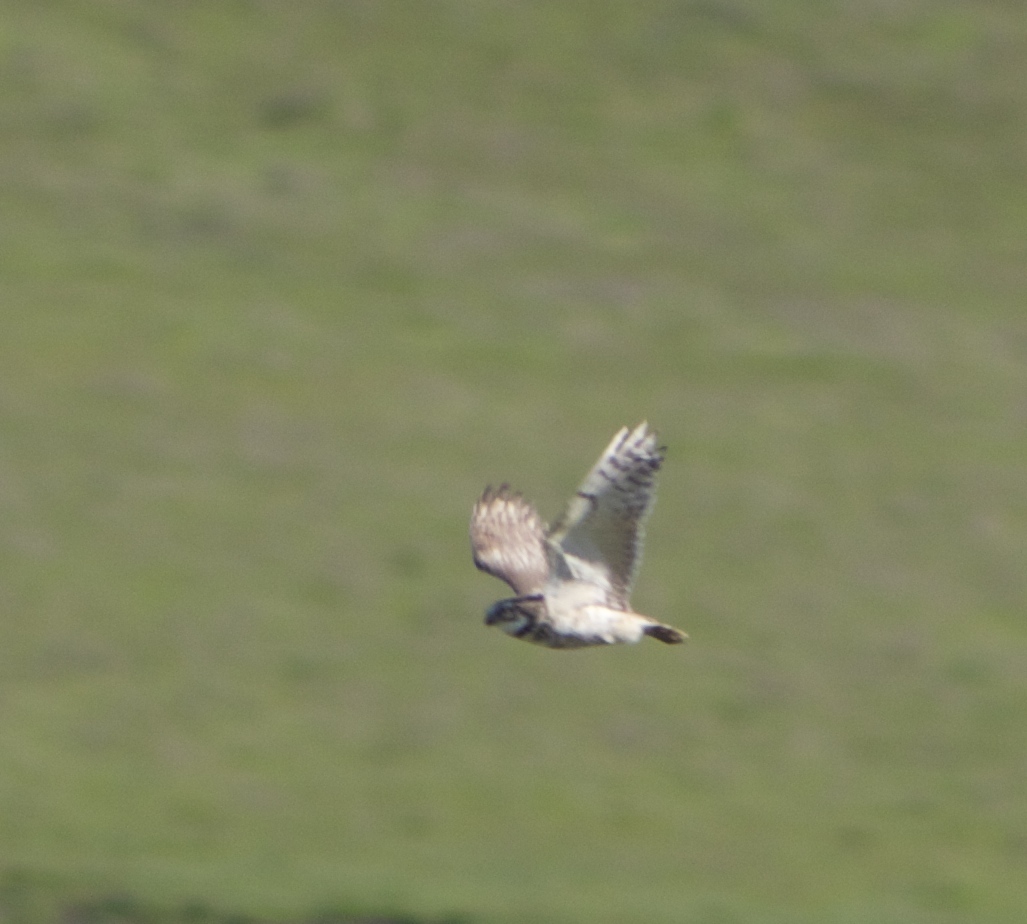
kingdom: Animalia
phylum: Chordata
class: Aves
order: Strigiformes
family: Strigidae
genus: Athene
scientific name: Athene cunicularia
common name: Burrowing owl
